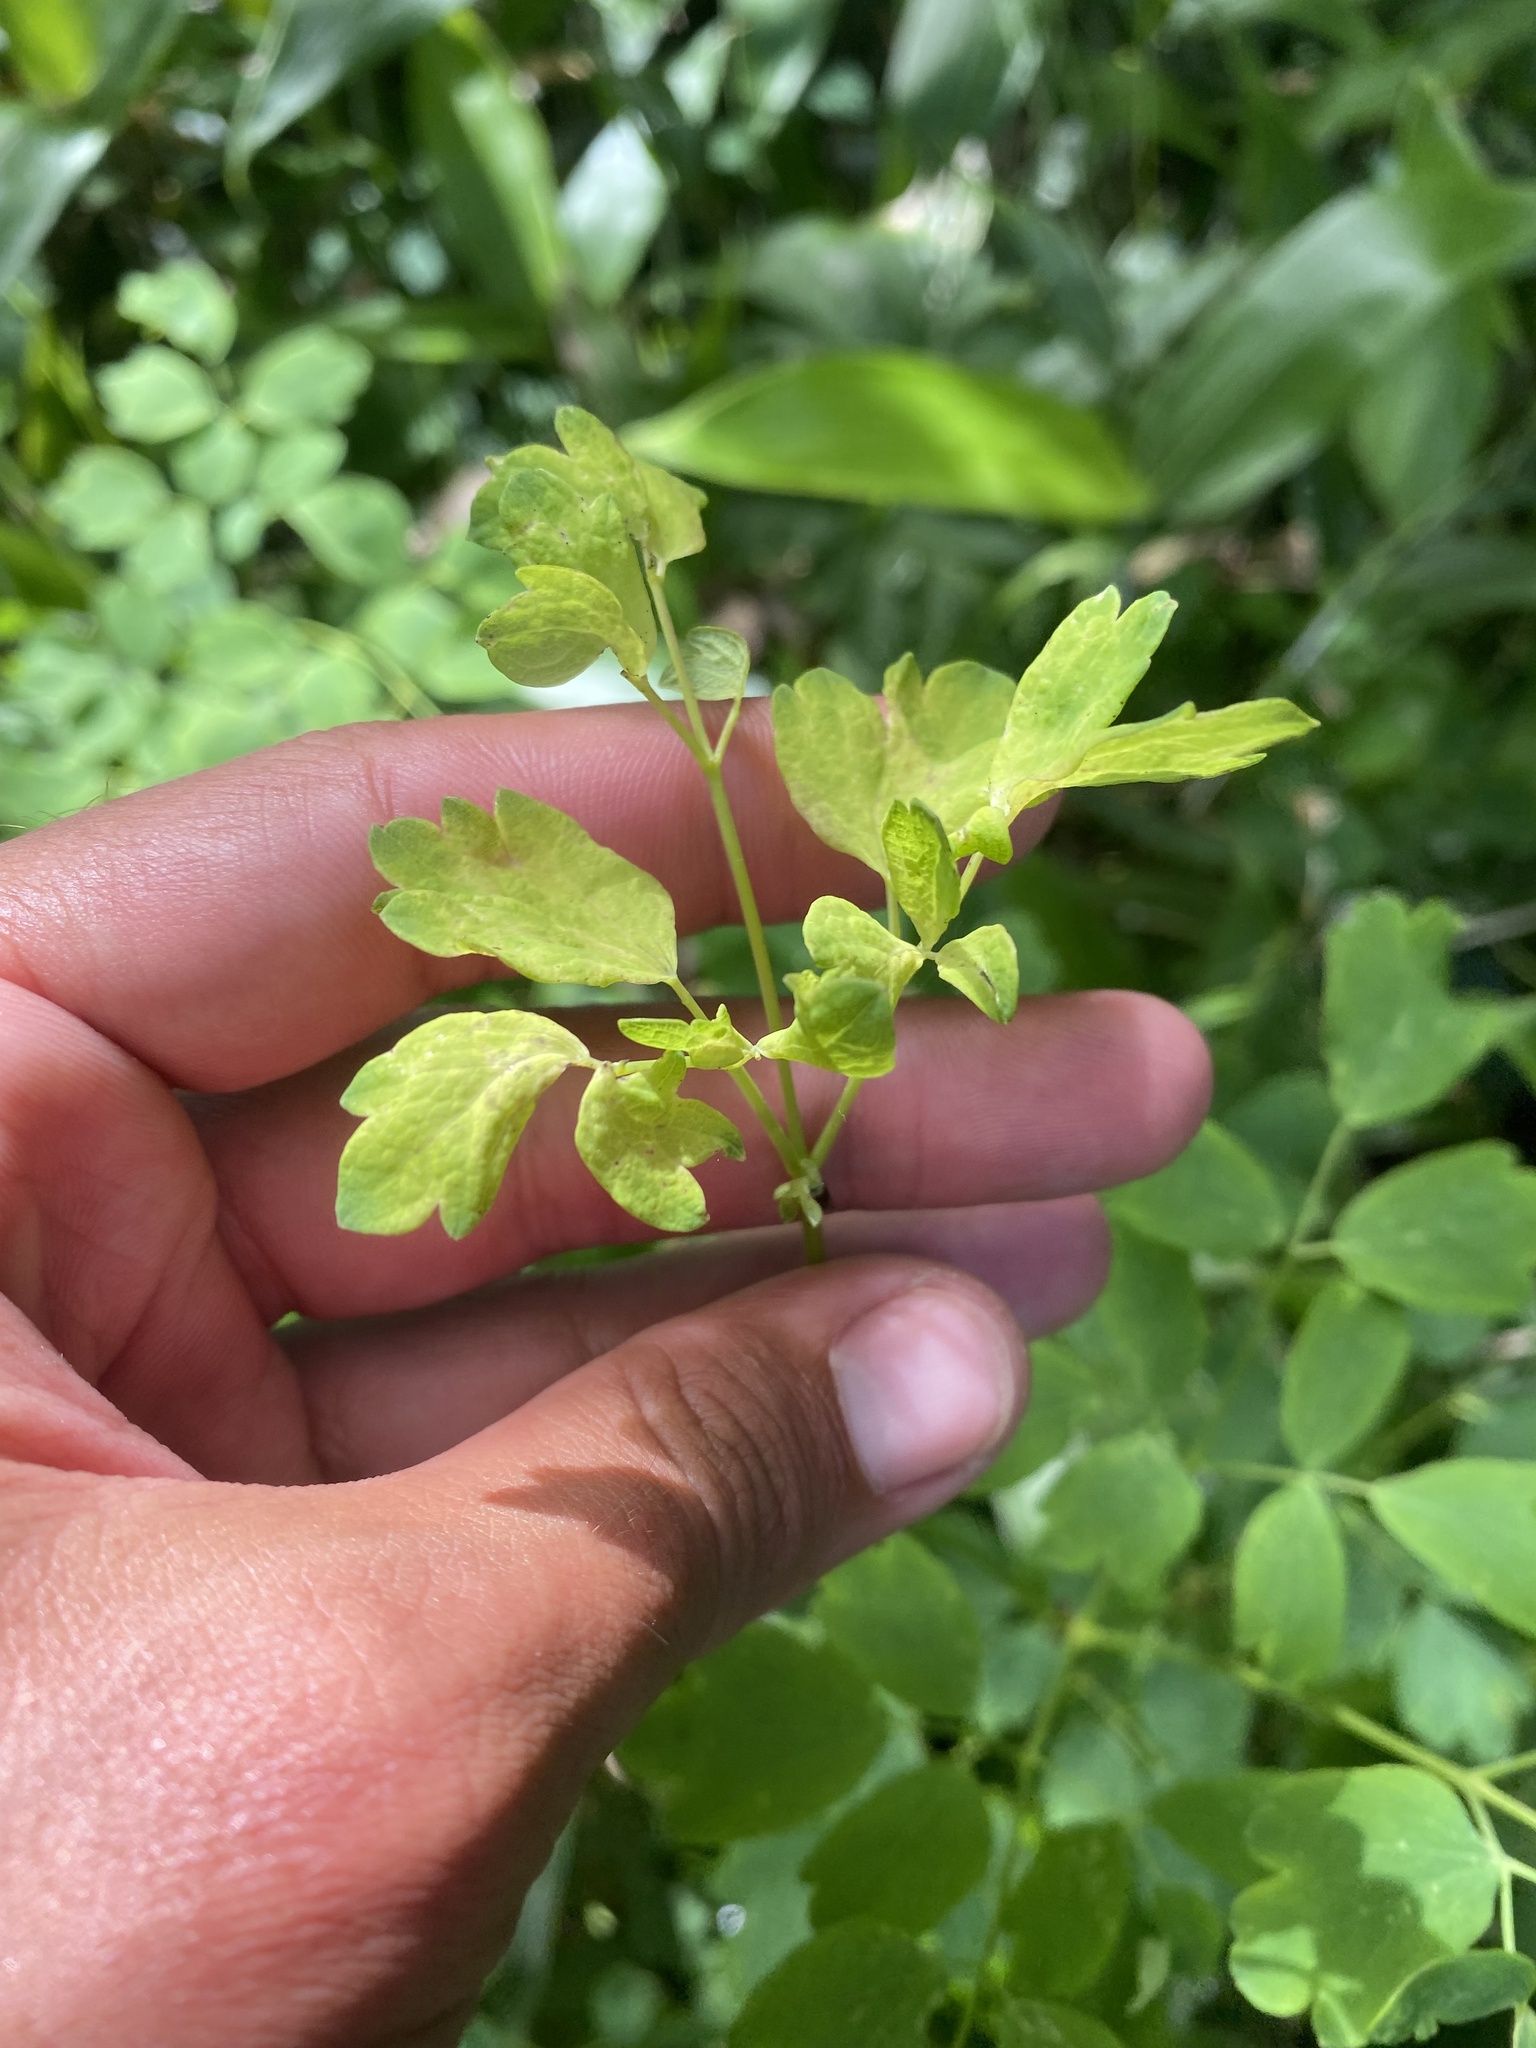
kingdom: Plantae
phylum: Tracheophyta
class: Magnoliopsida
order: Ranunculales
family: Ranunculaceae
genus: Thalictrum
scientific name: Thalictrum minus
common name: Lesser meadow-rue
